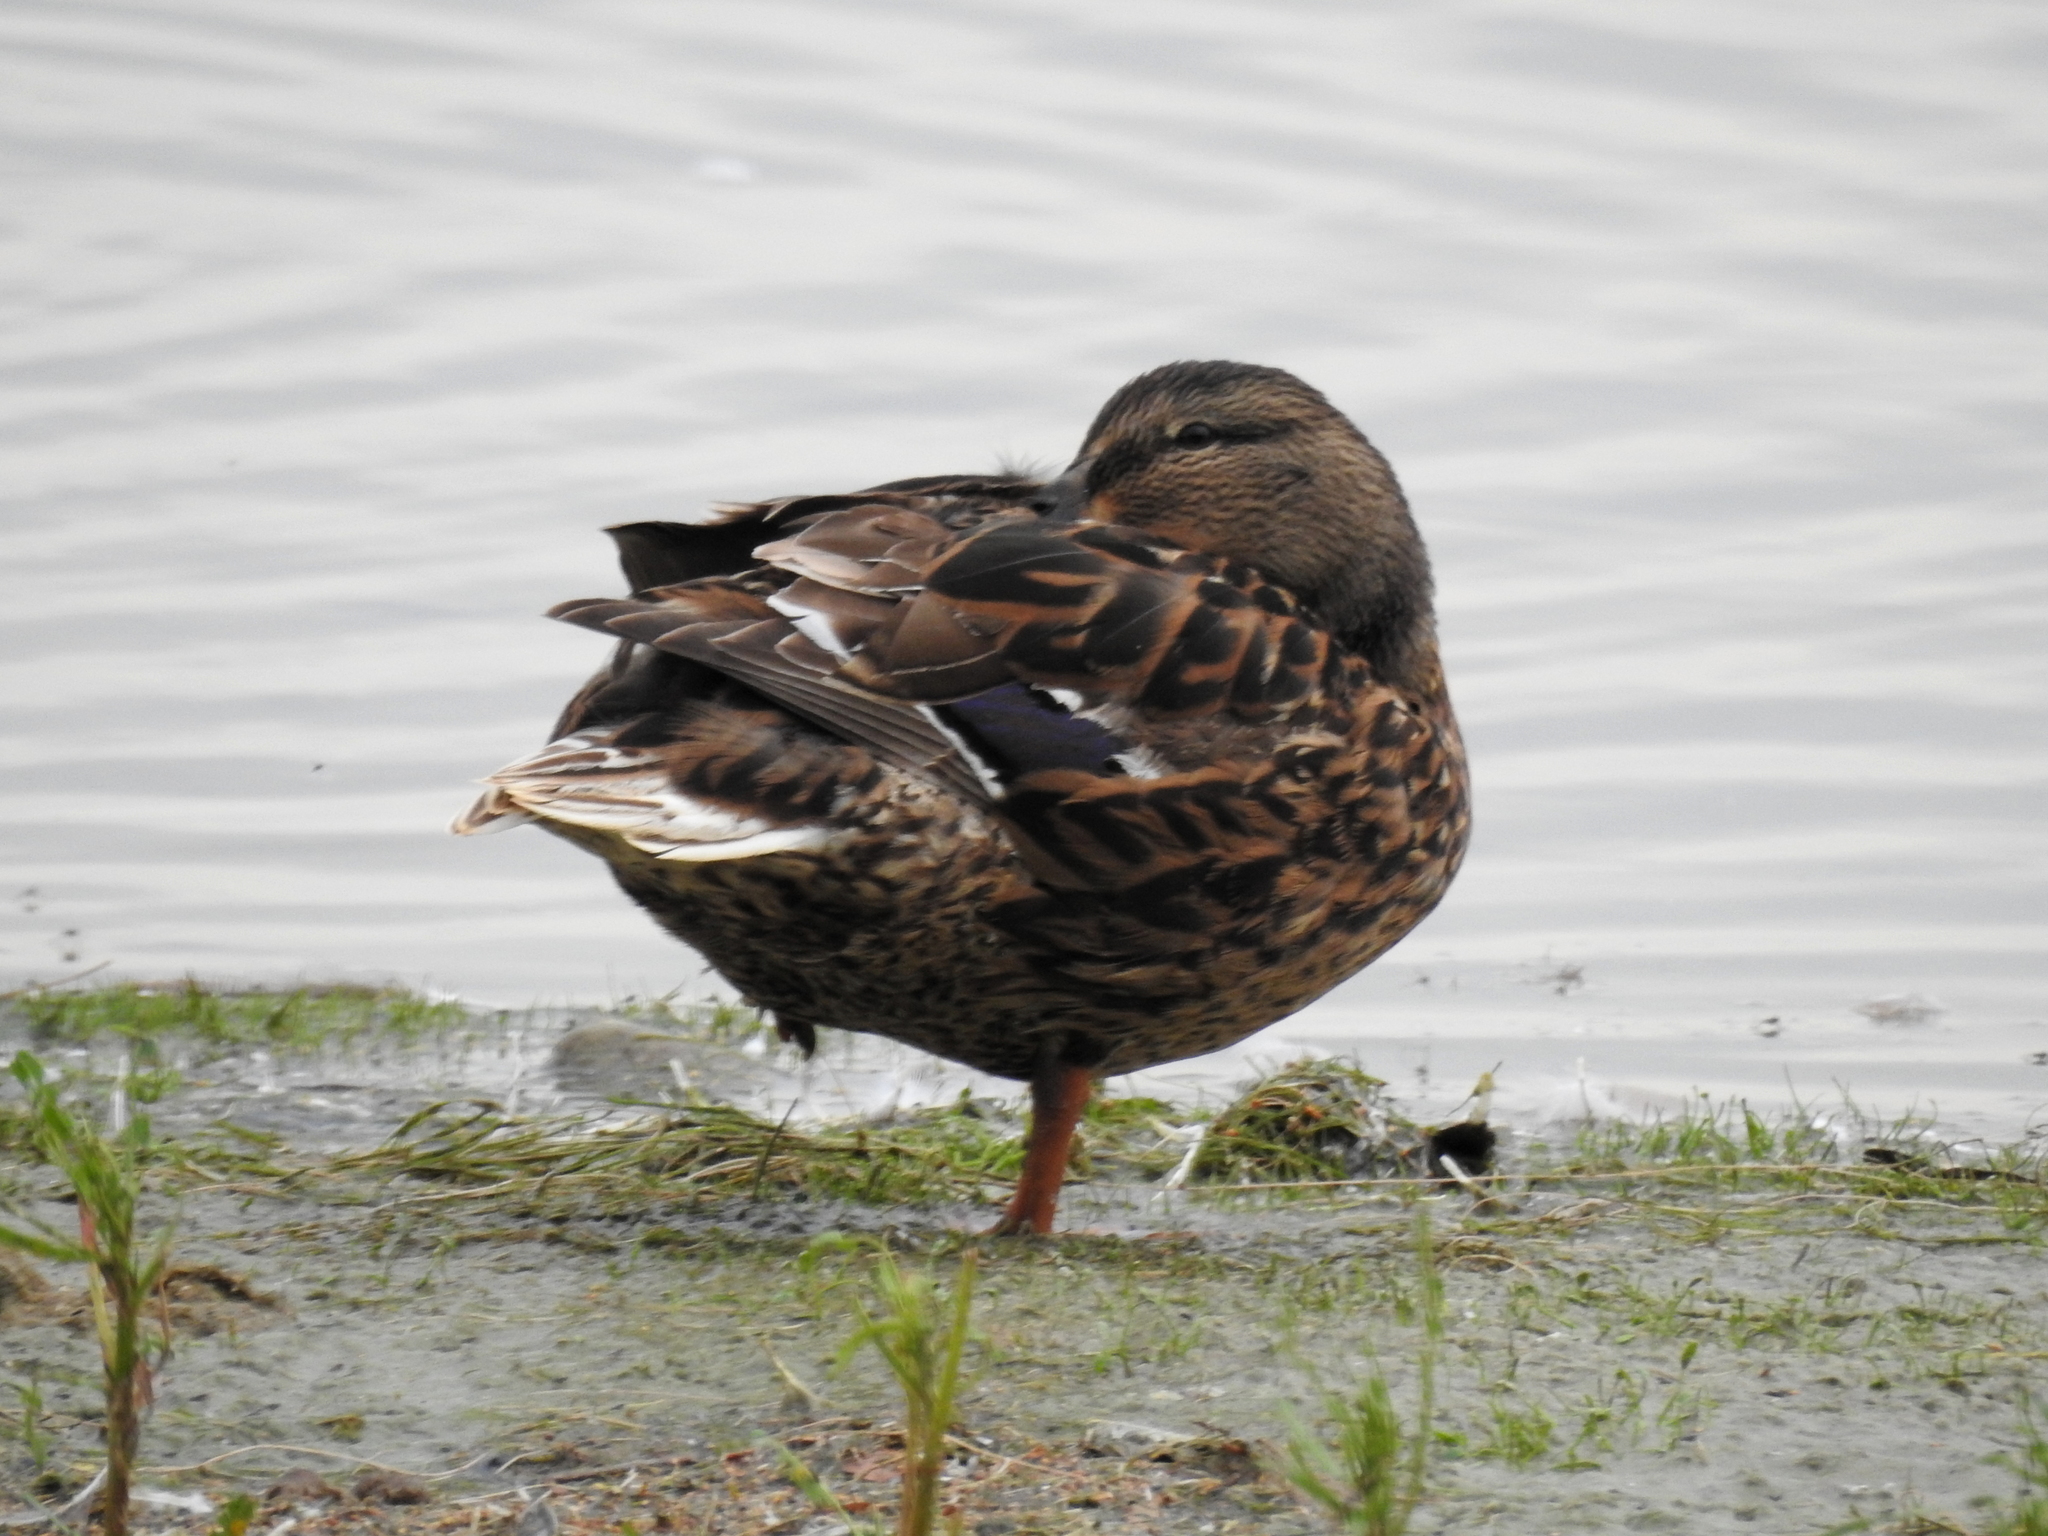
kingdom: Animalia
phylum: Chordata
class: Aves
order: Anseriformes
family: Anatidae
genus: Anas
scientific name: Anas platyrhynchos
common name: Mallard
